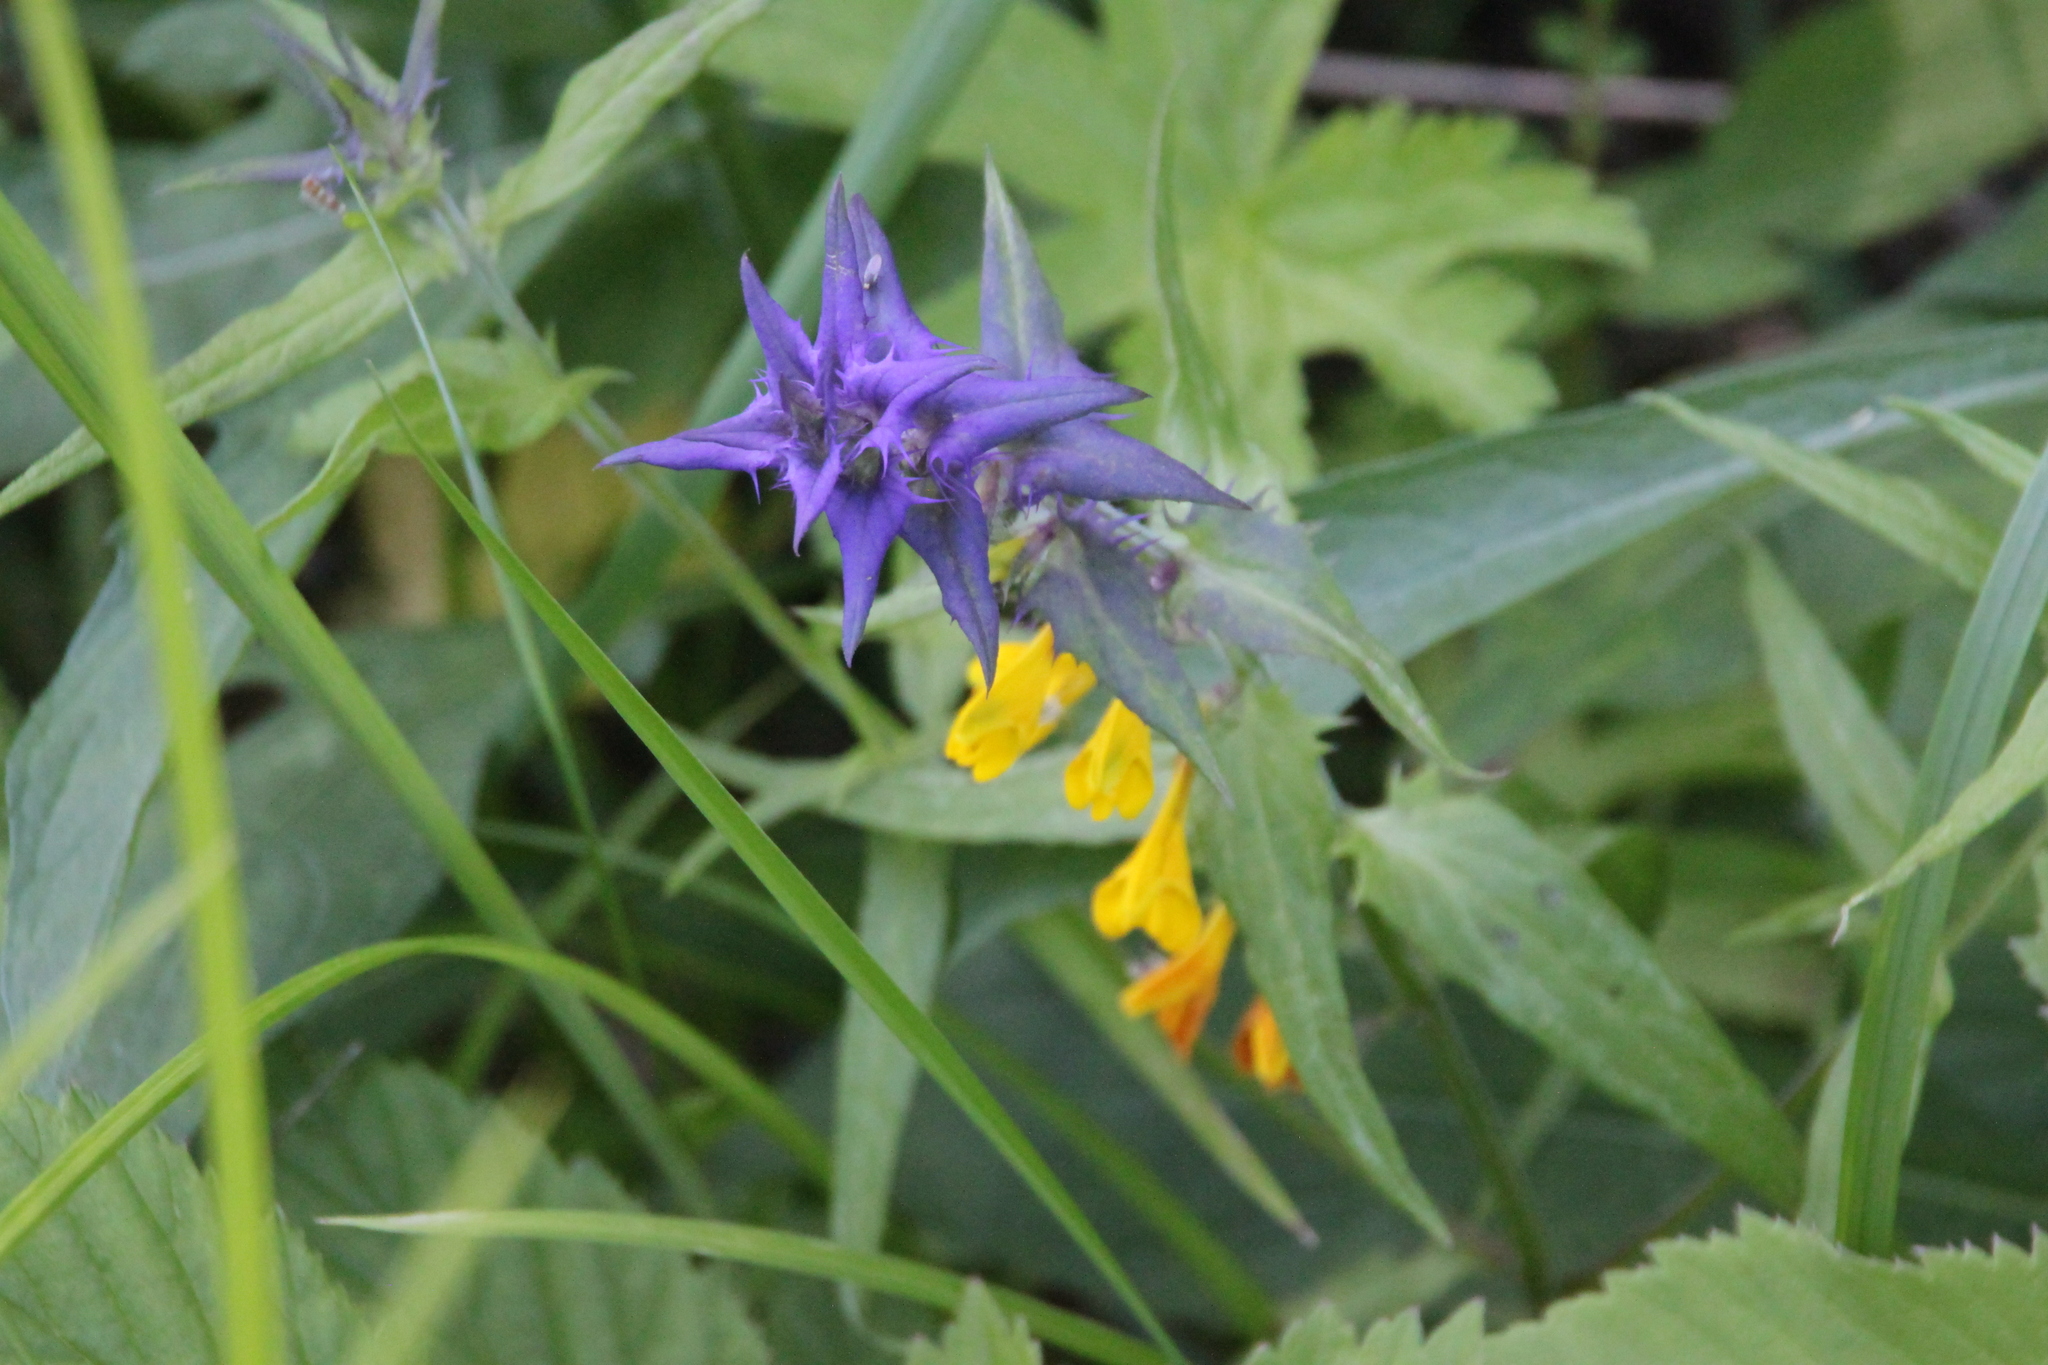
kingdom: Plantae
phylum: Tracheophyta
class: Magnoliopsida
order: Lamiales
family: Orobanchaceae
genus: Melampyrum
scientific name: Melampyrum nemorosum
